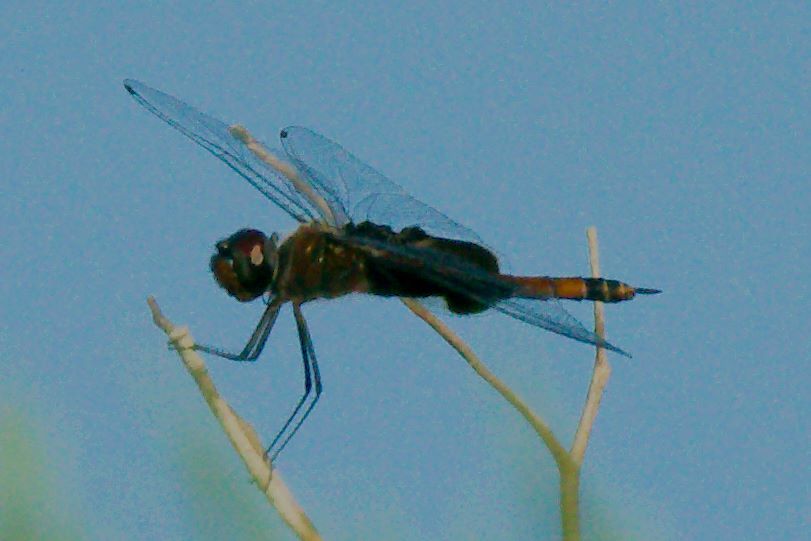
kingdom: Animalia
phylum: Arthropoda
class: Insecta
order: Odonata
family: Libellulidae
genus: Tramea
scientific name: Tramea carolina
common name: Carolina saddlebags
